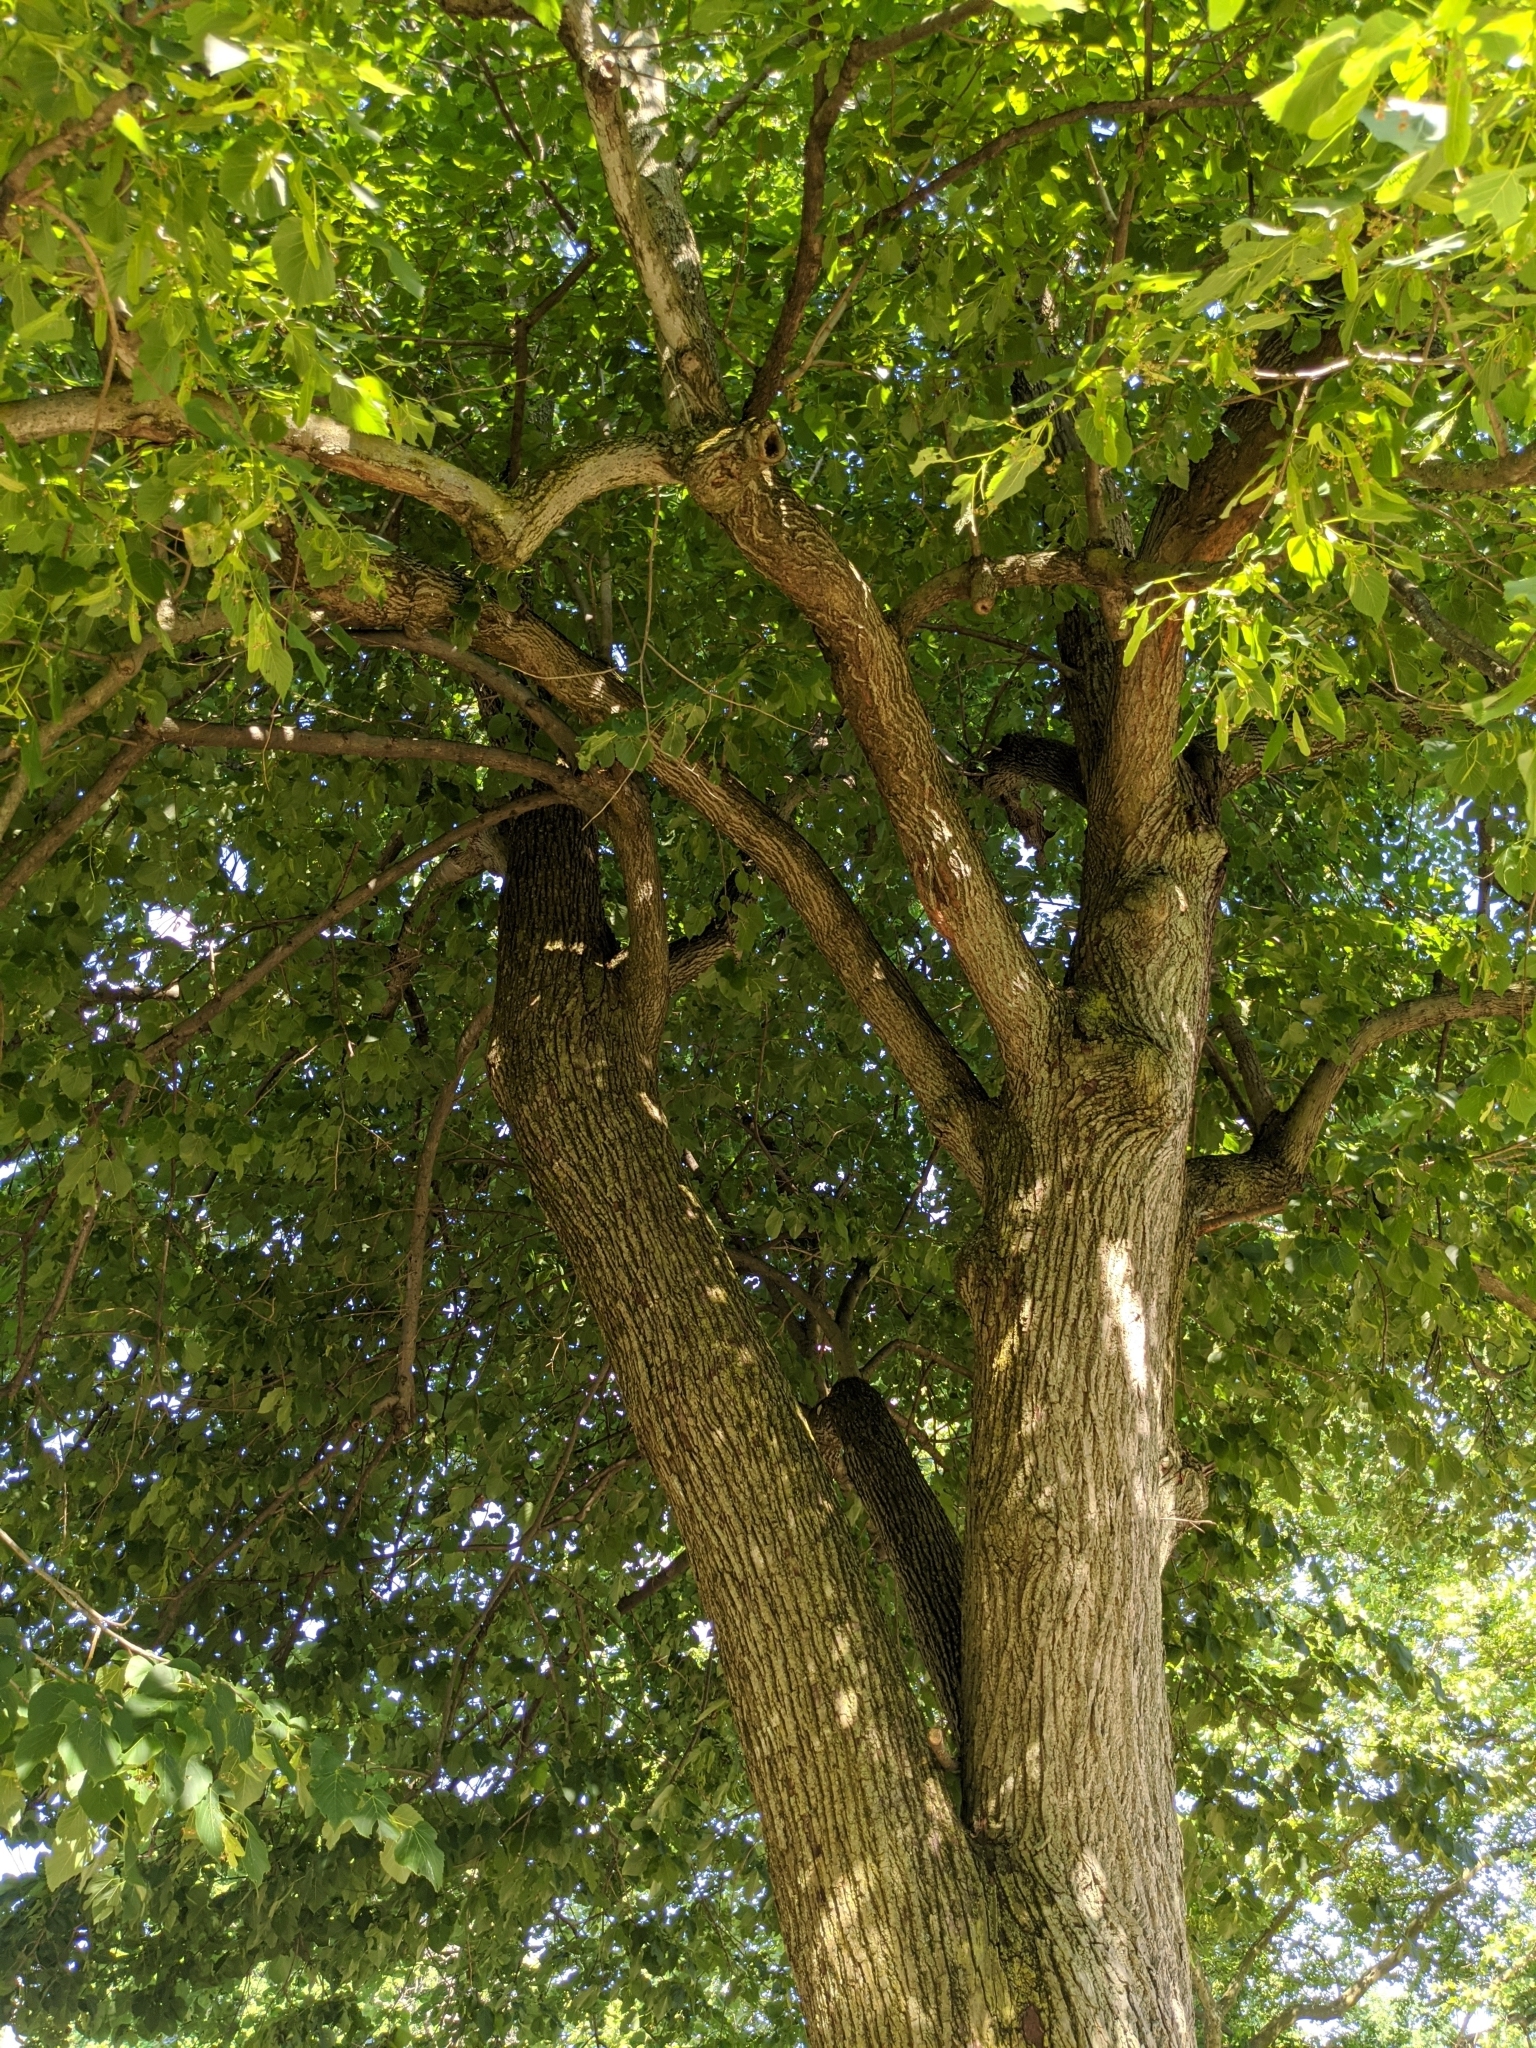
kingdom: Plantae
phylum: Tracheophyta
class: Magnoliopsida
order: Malvales
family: Malvaceae
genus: Tilia
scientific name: Tilia americana
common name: Basswood
